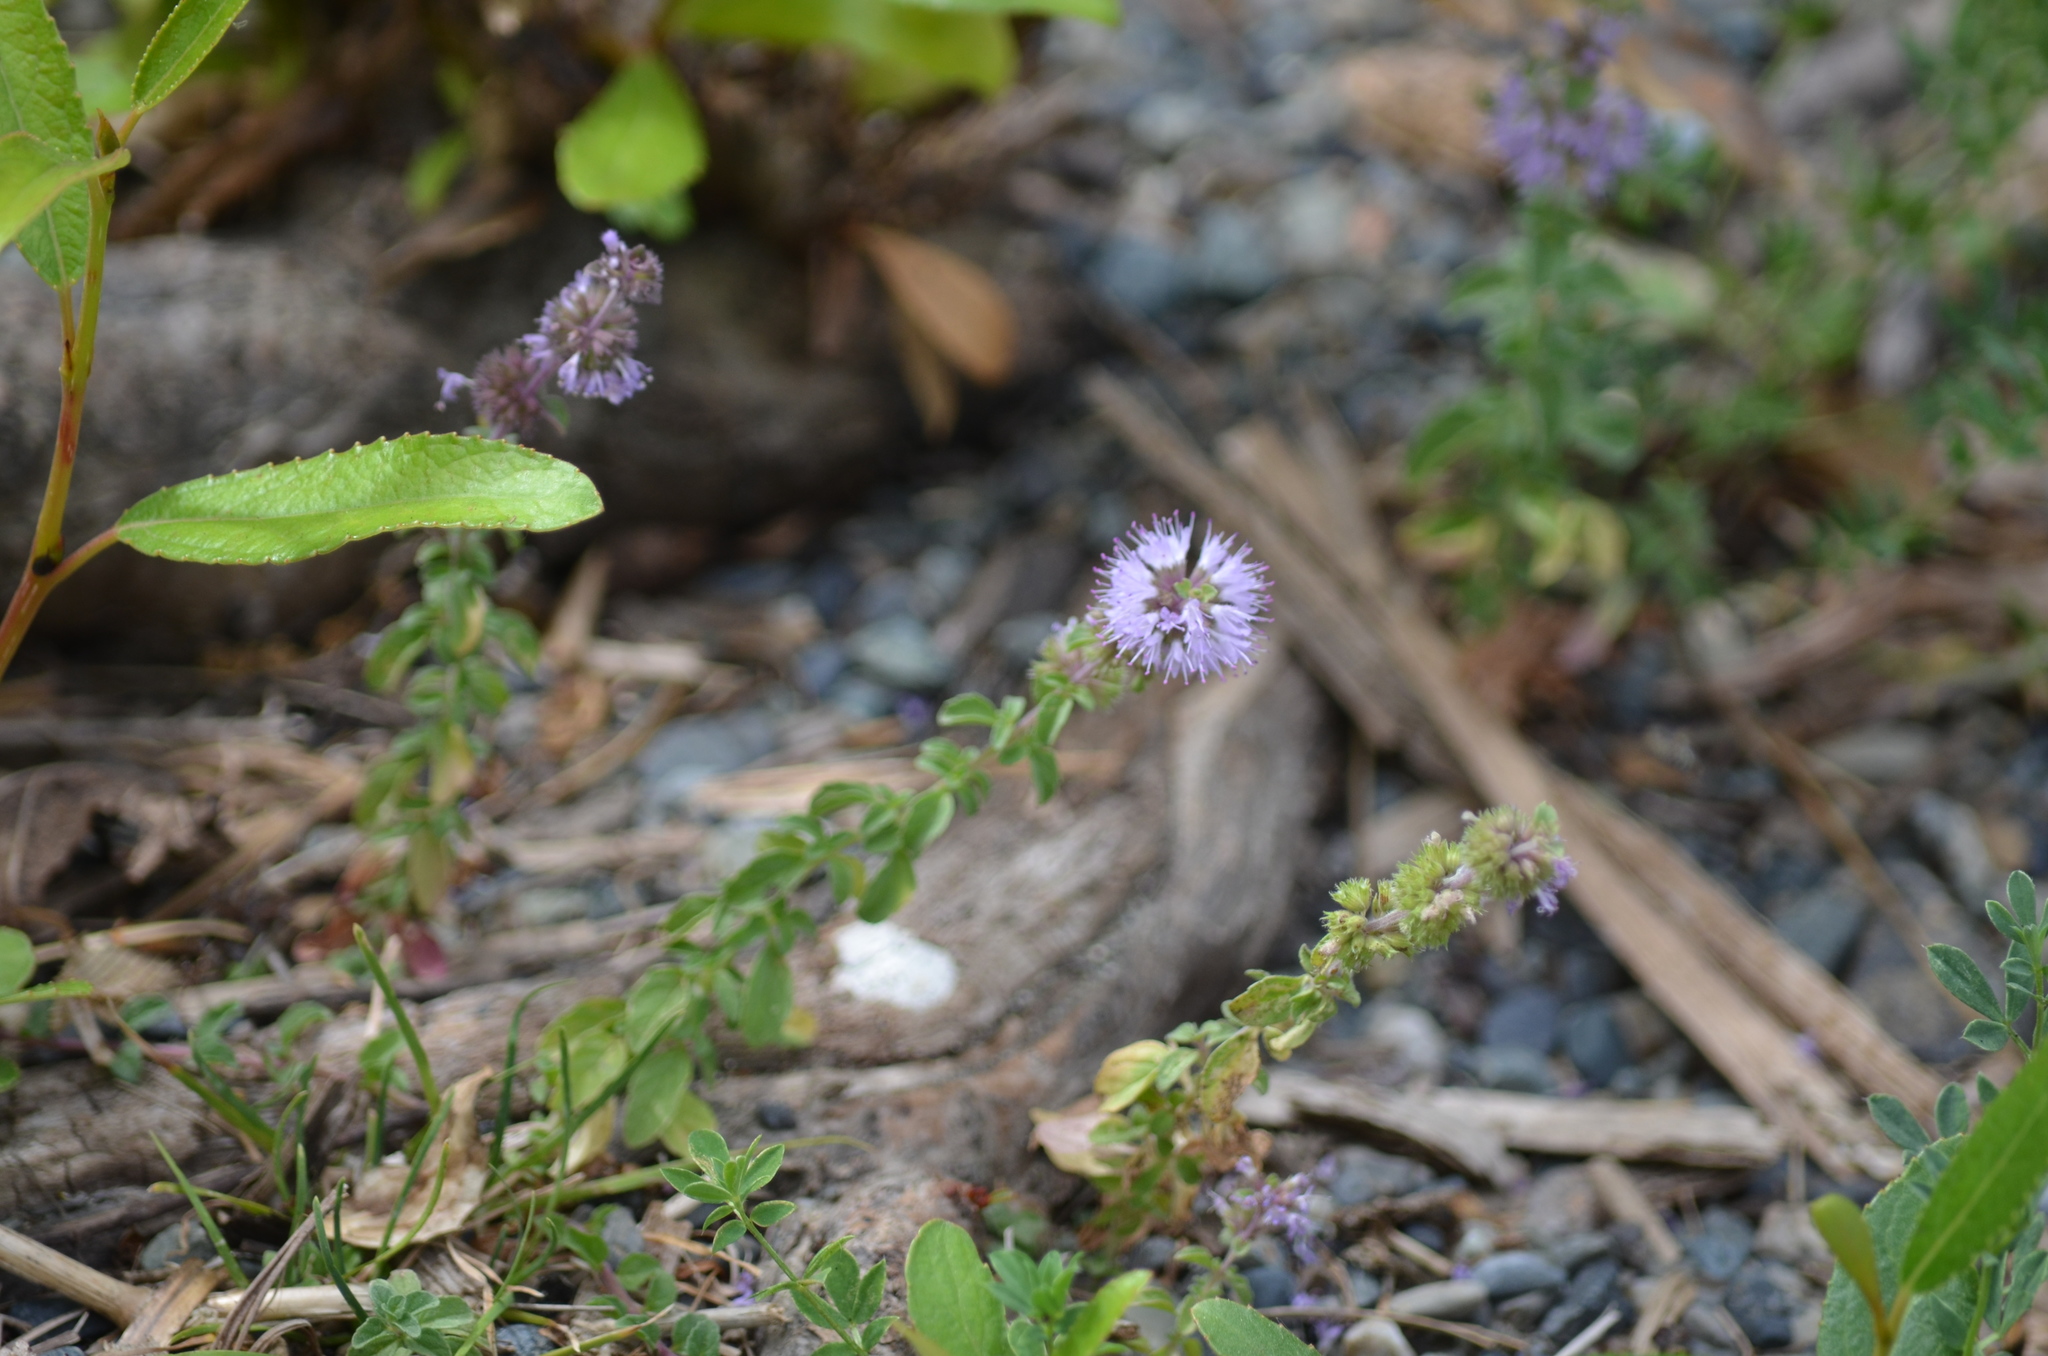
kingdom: Plantae
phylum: Tracheophyta
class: Magnoliopsida
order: Lamiales
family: Lamiaceae
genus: Mentha
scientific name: Mentha pulegium
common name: Pennyroyal
